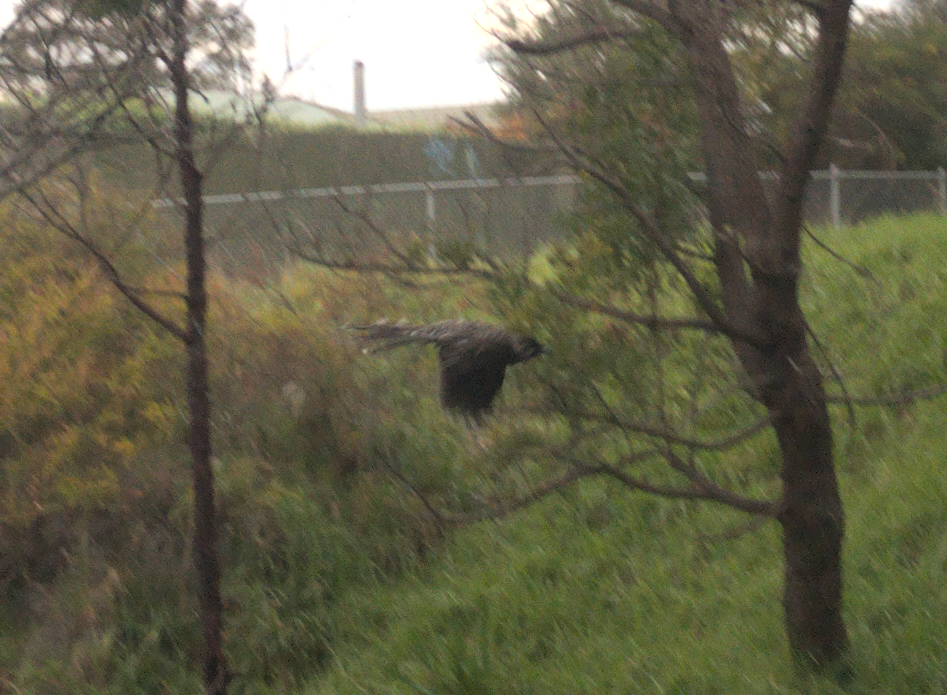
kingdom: Animalia
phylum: Chordata
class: Aves
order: Passeriformes
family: Meliphagidae
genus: Anthochaera
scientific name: Anthochaera carunculata
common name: Red wattlebird
